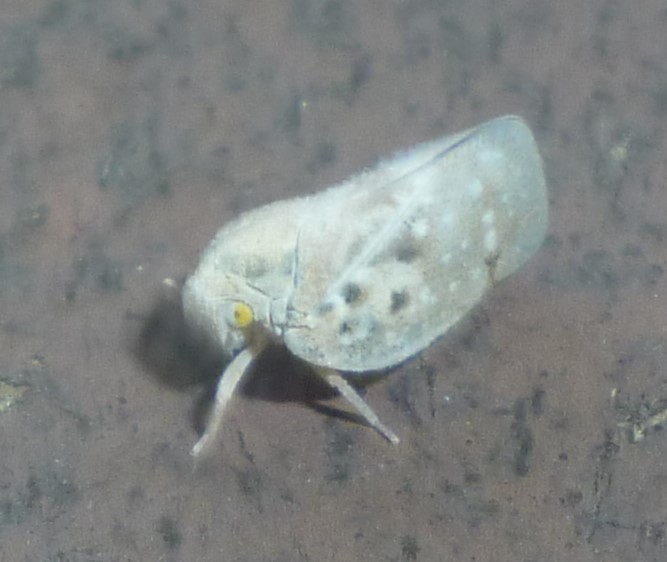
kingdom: Animalia
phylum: Arthropoda
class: Insecta
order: Hemiptera
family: Flatidae
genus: Metcalfa
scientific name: Metcalfa pruinosa
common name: Citrus flatid planthopper
